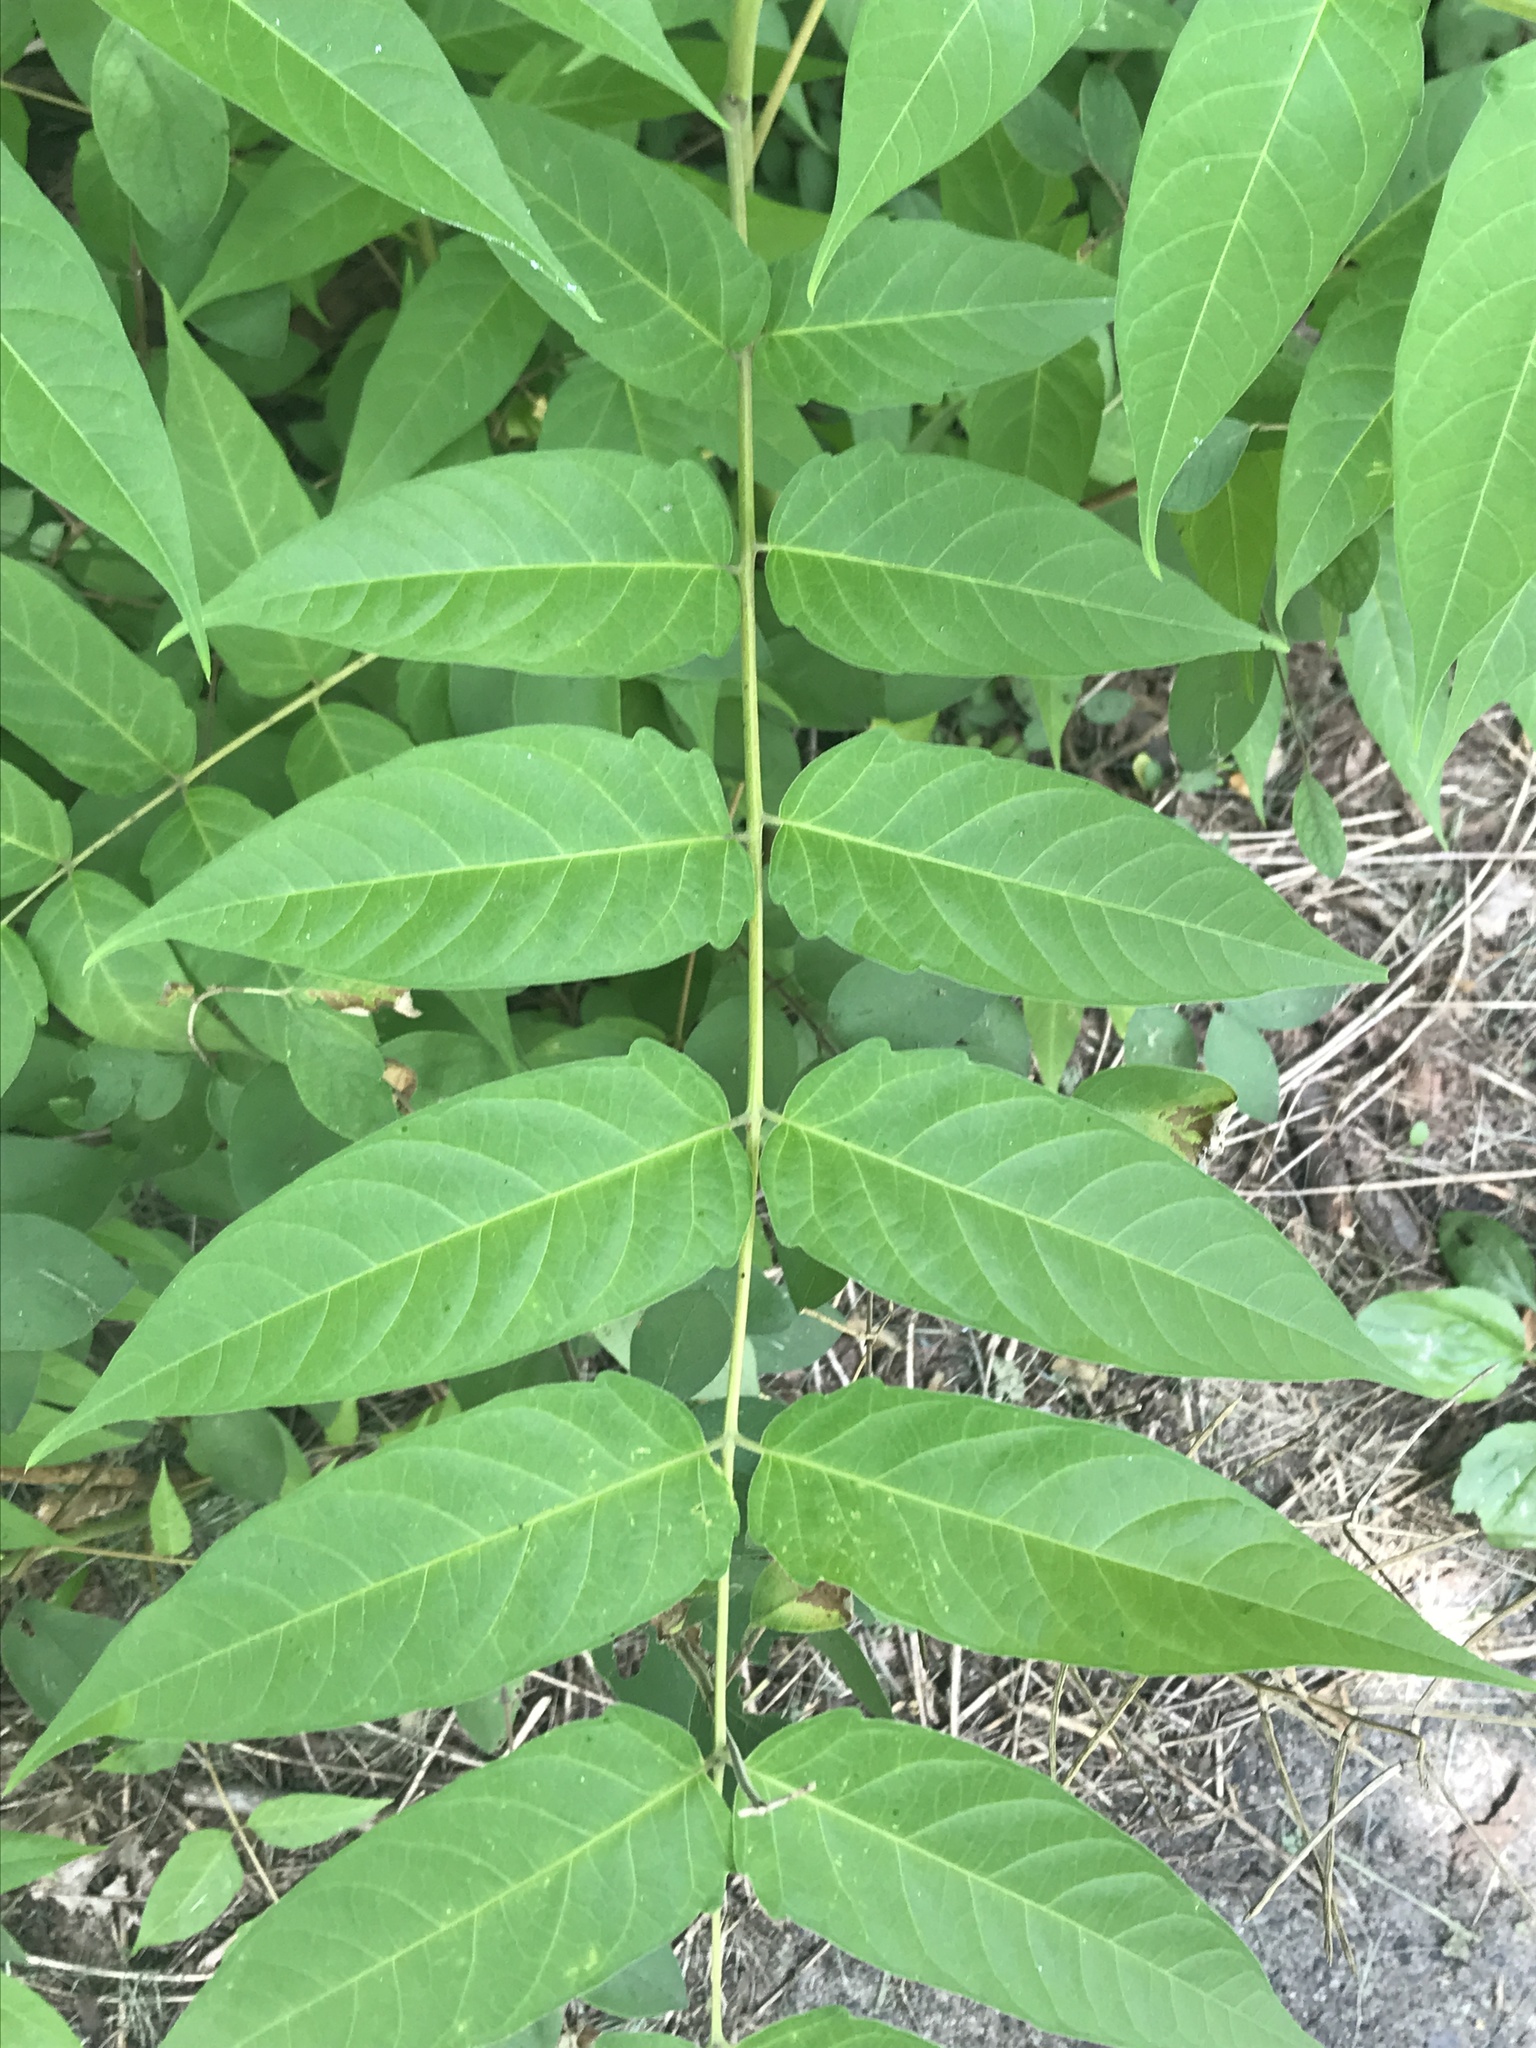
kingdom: Plantae
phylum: Tracheophyta
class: Magnoliopsida
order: Sapindales
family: Simaroubaceae
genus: Ailanthus
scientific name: Ailanthus altissima
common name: Tree-of-heaven
